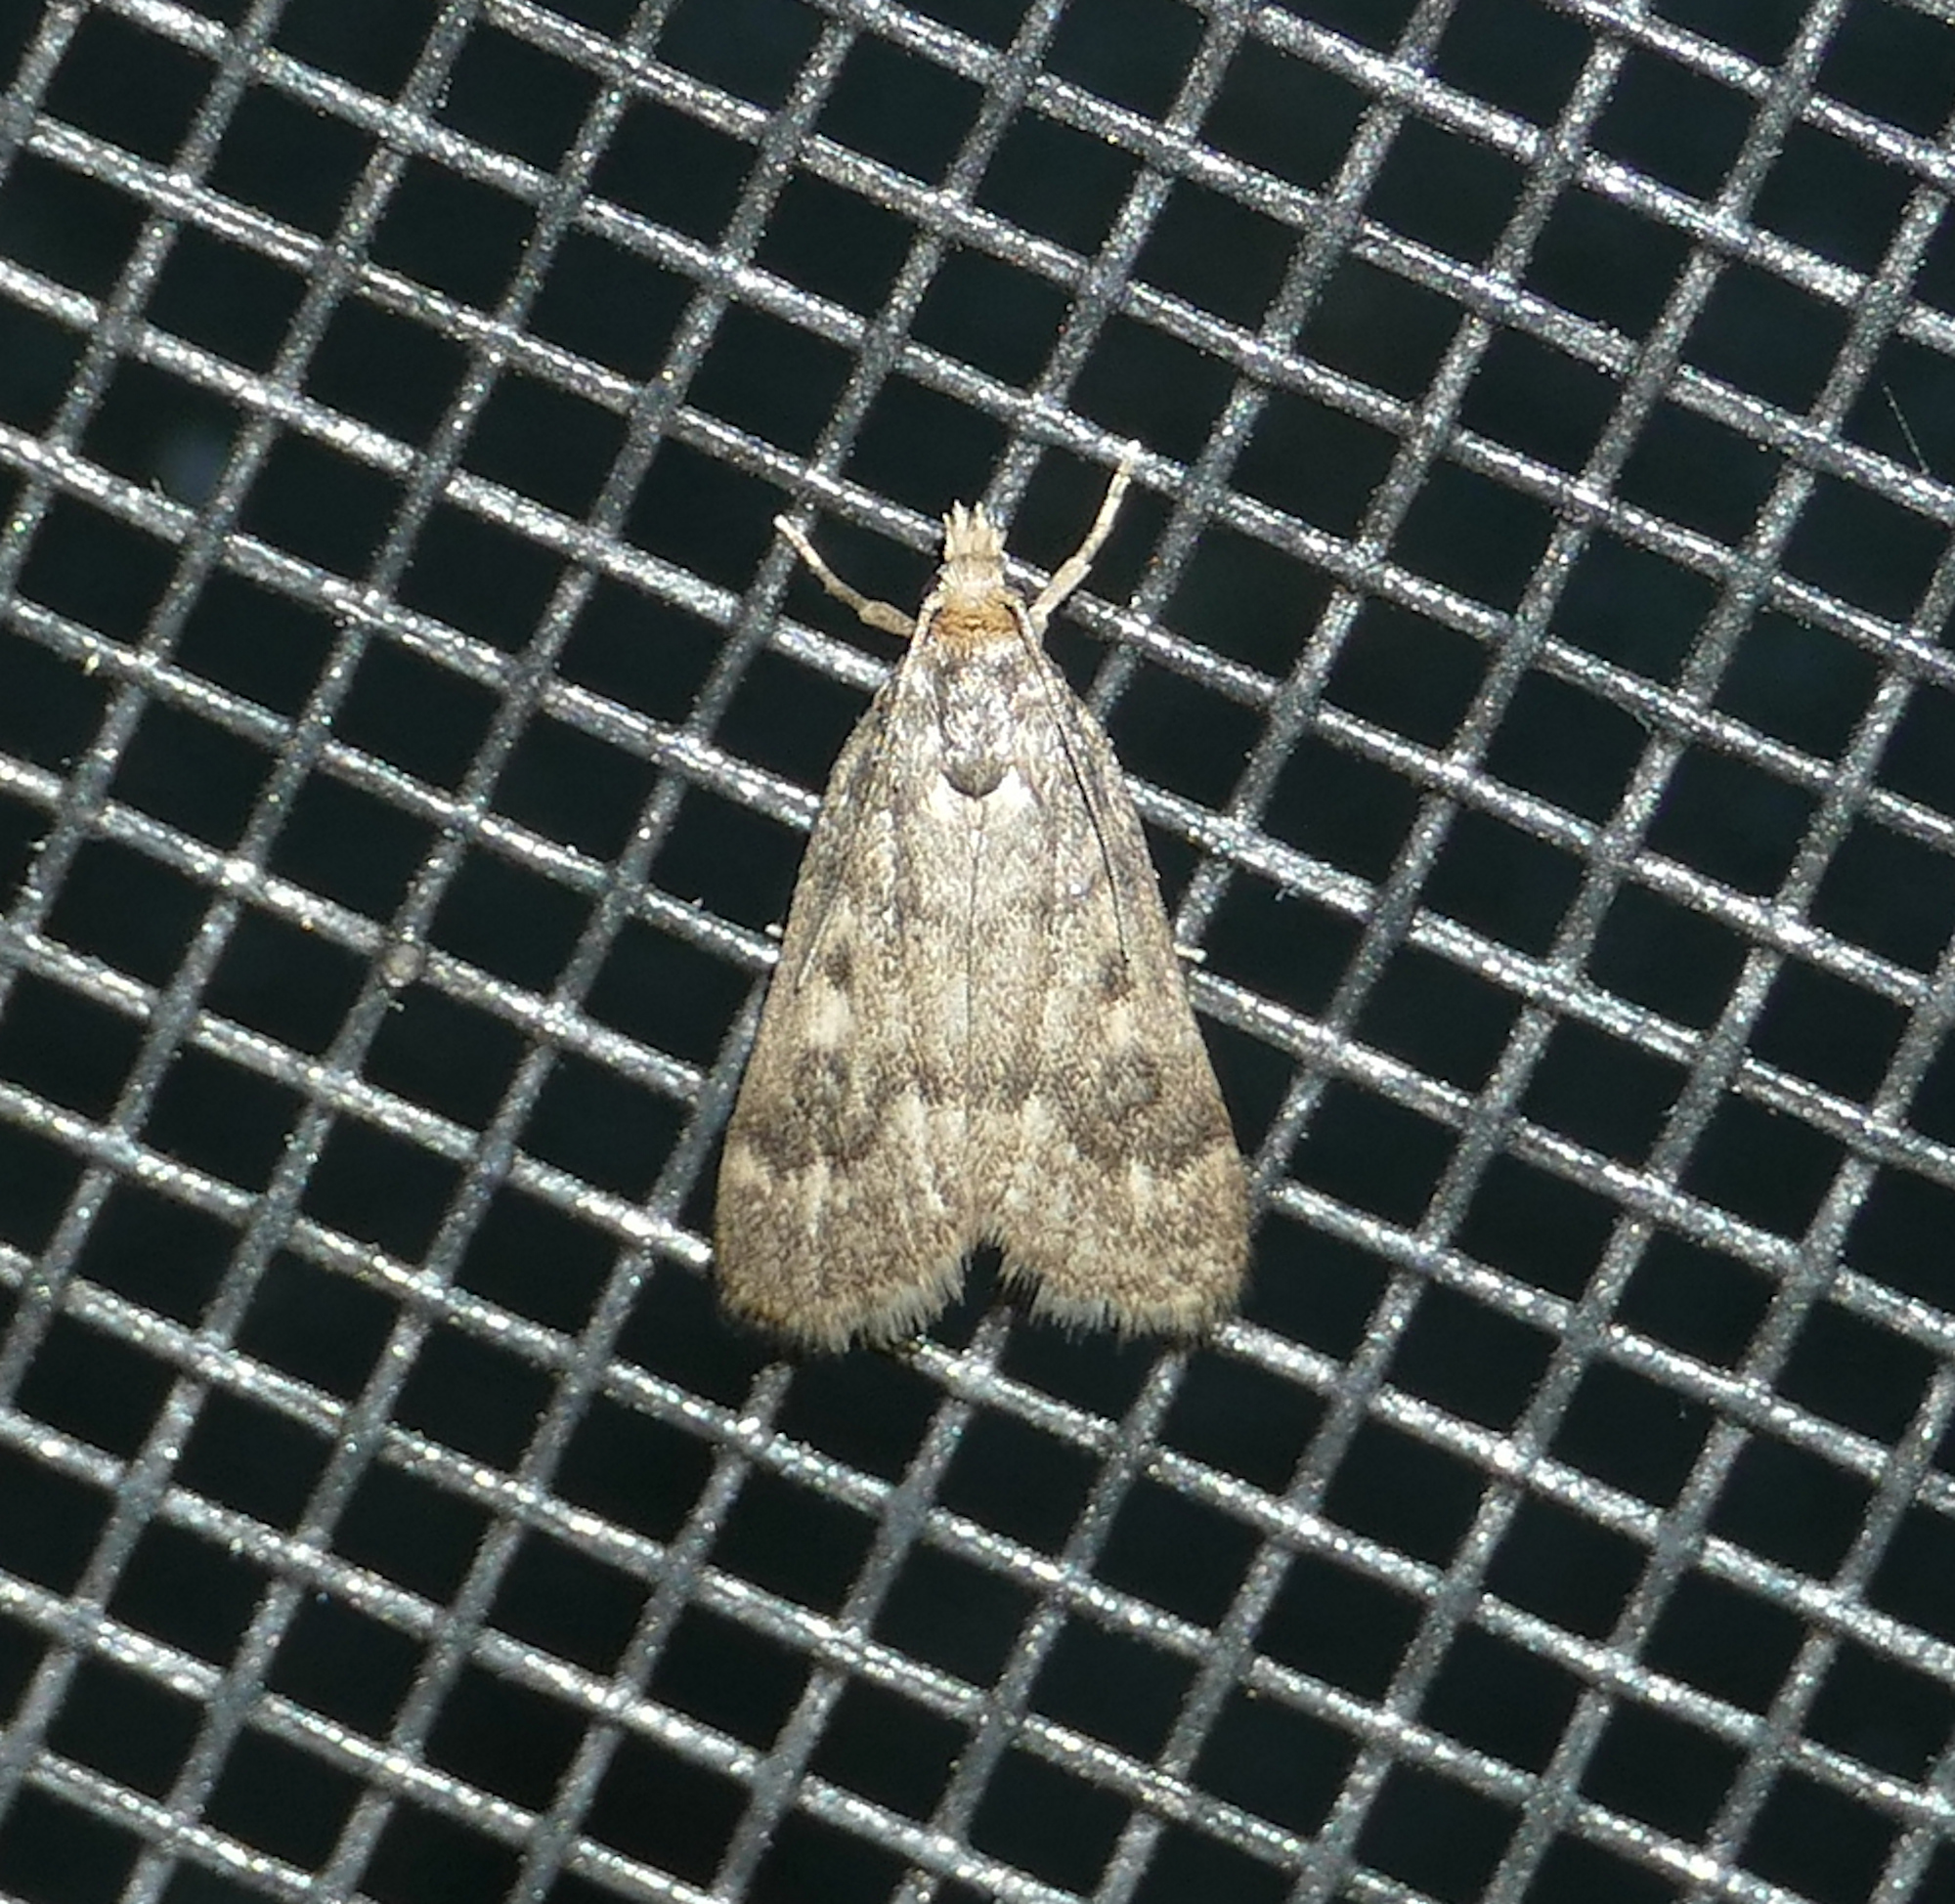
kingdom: Animalia
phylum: Arthropoda
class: Insecta
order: Lepidoptera
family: Crambidae
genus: Loxostegopsis
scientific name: Loxostegopsis polle
